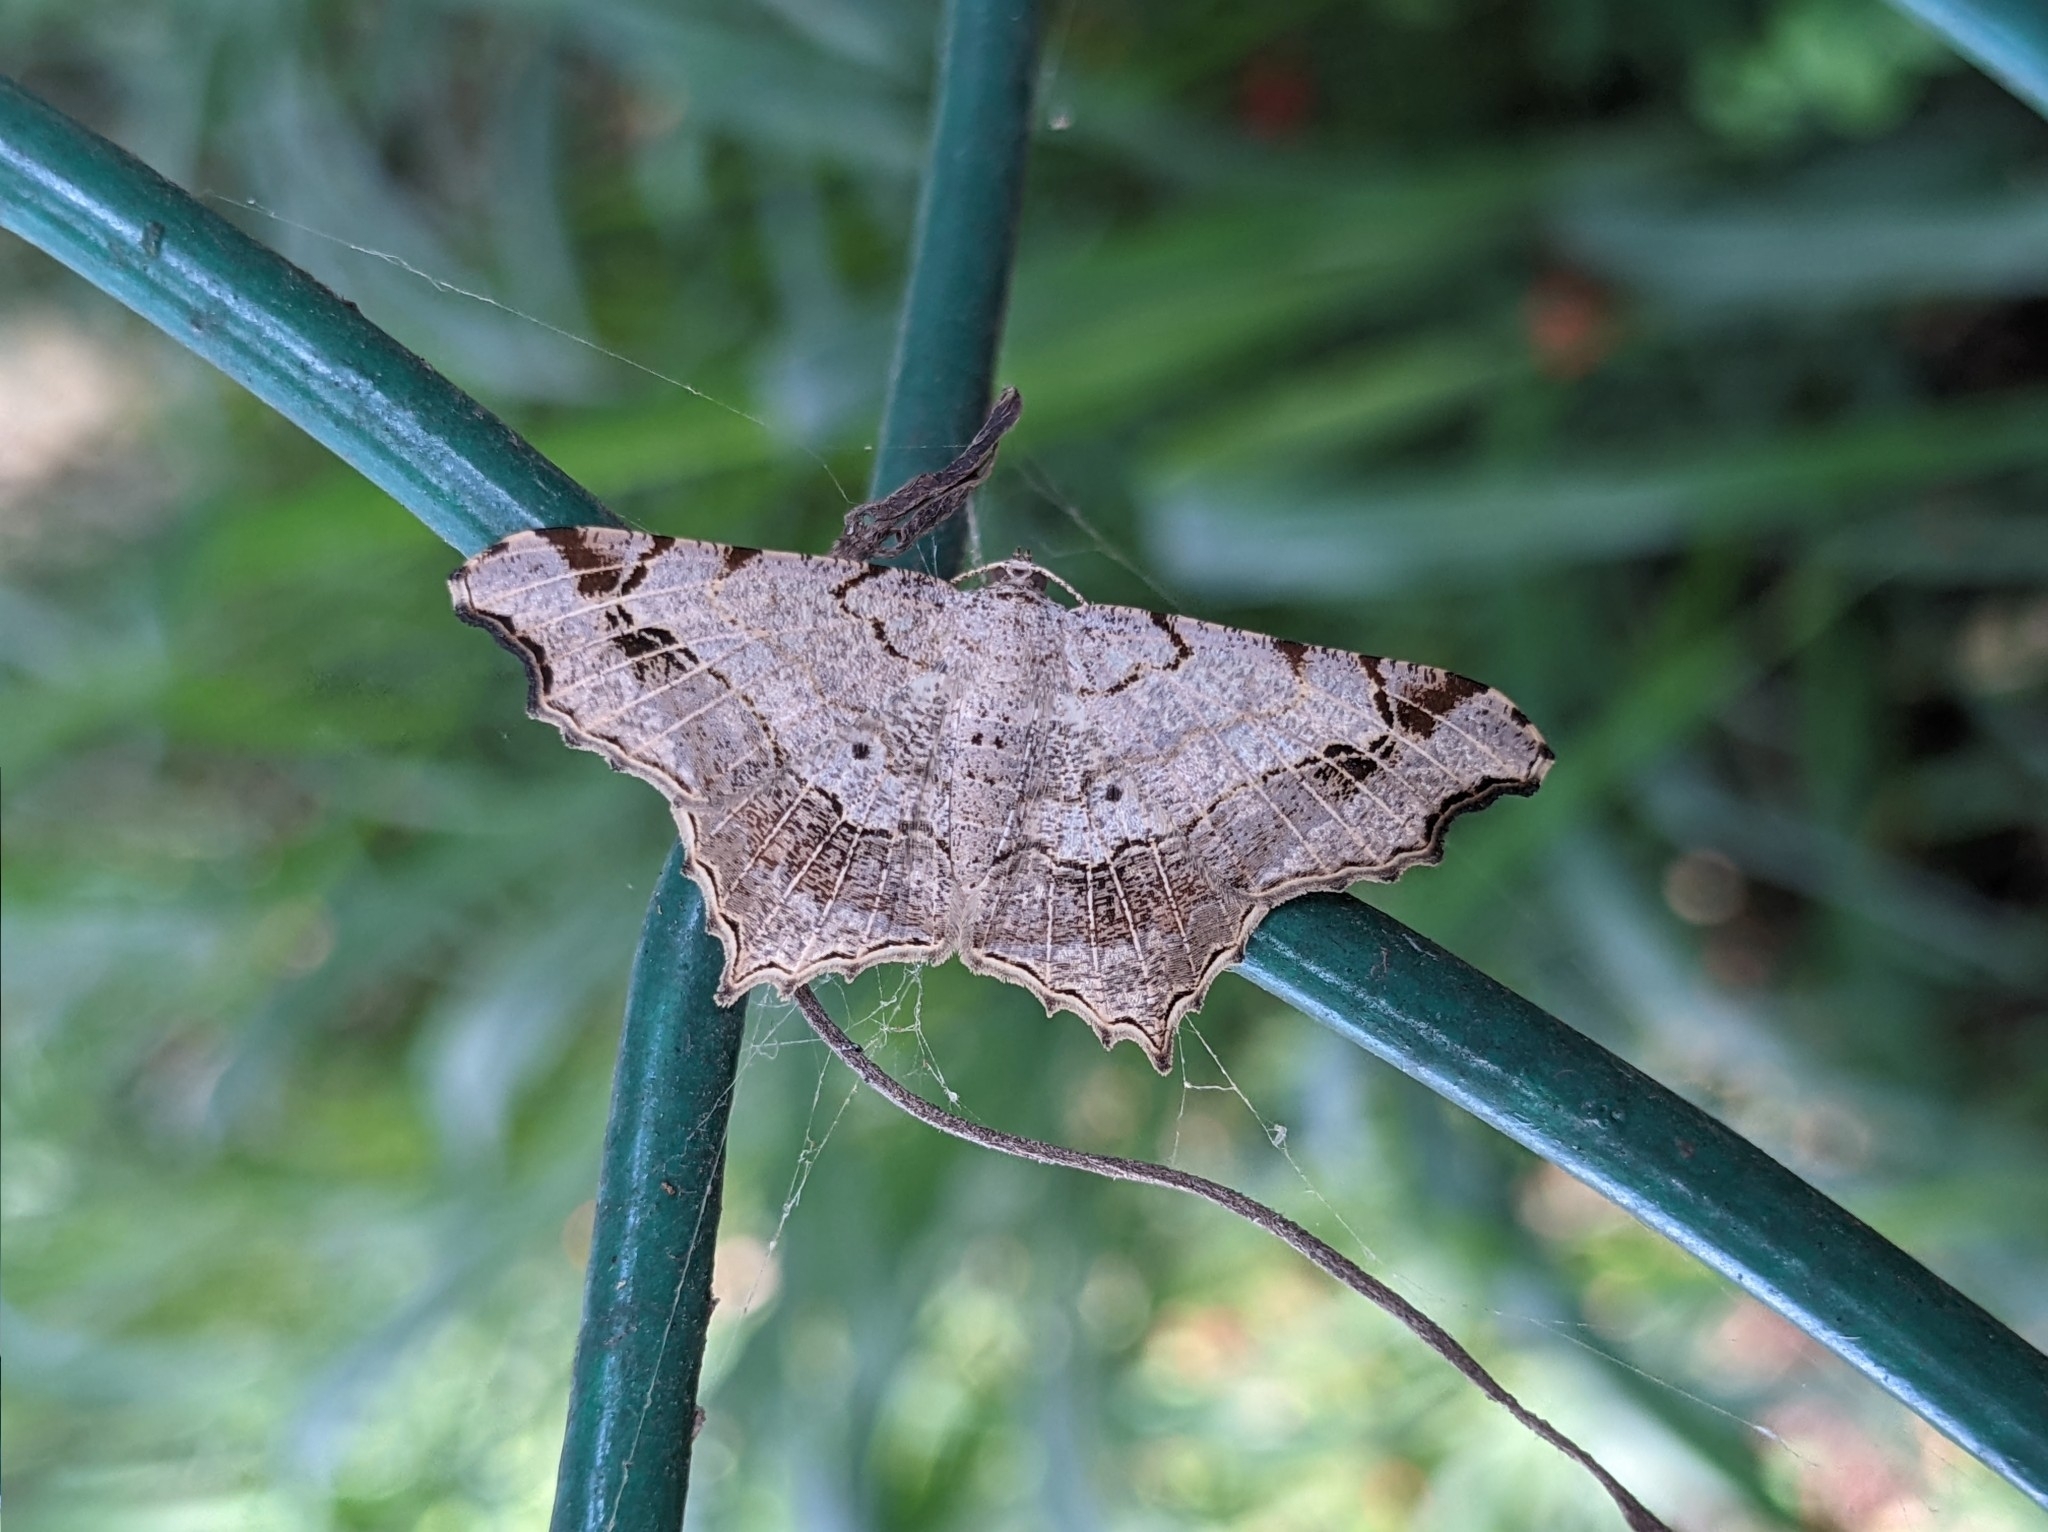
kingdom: Animalia
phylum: Arthropoda
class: Insecta
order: Lepidoptera
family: Geometridae
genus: Chiasmia
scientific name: Chiasmia emersaria
